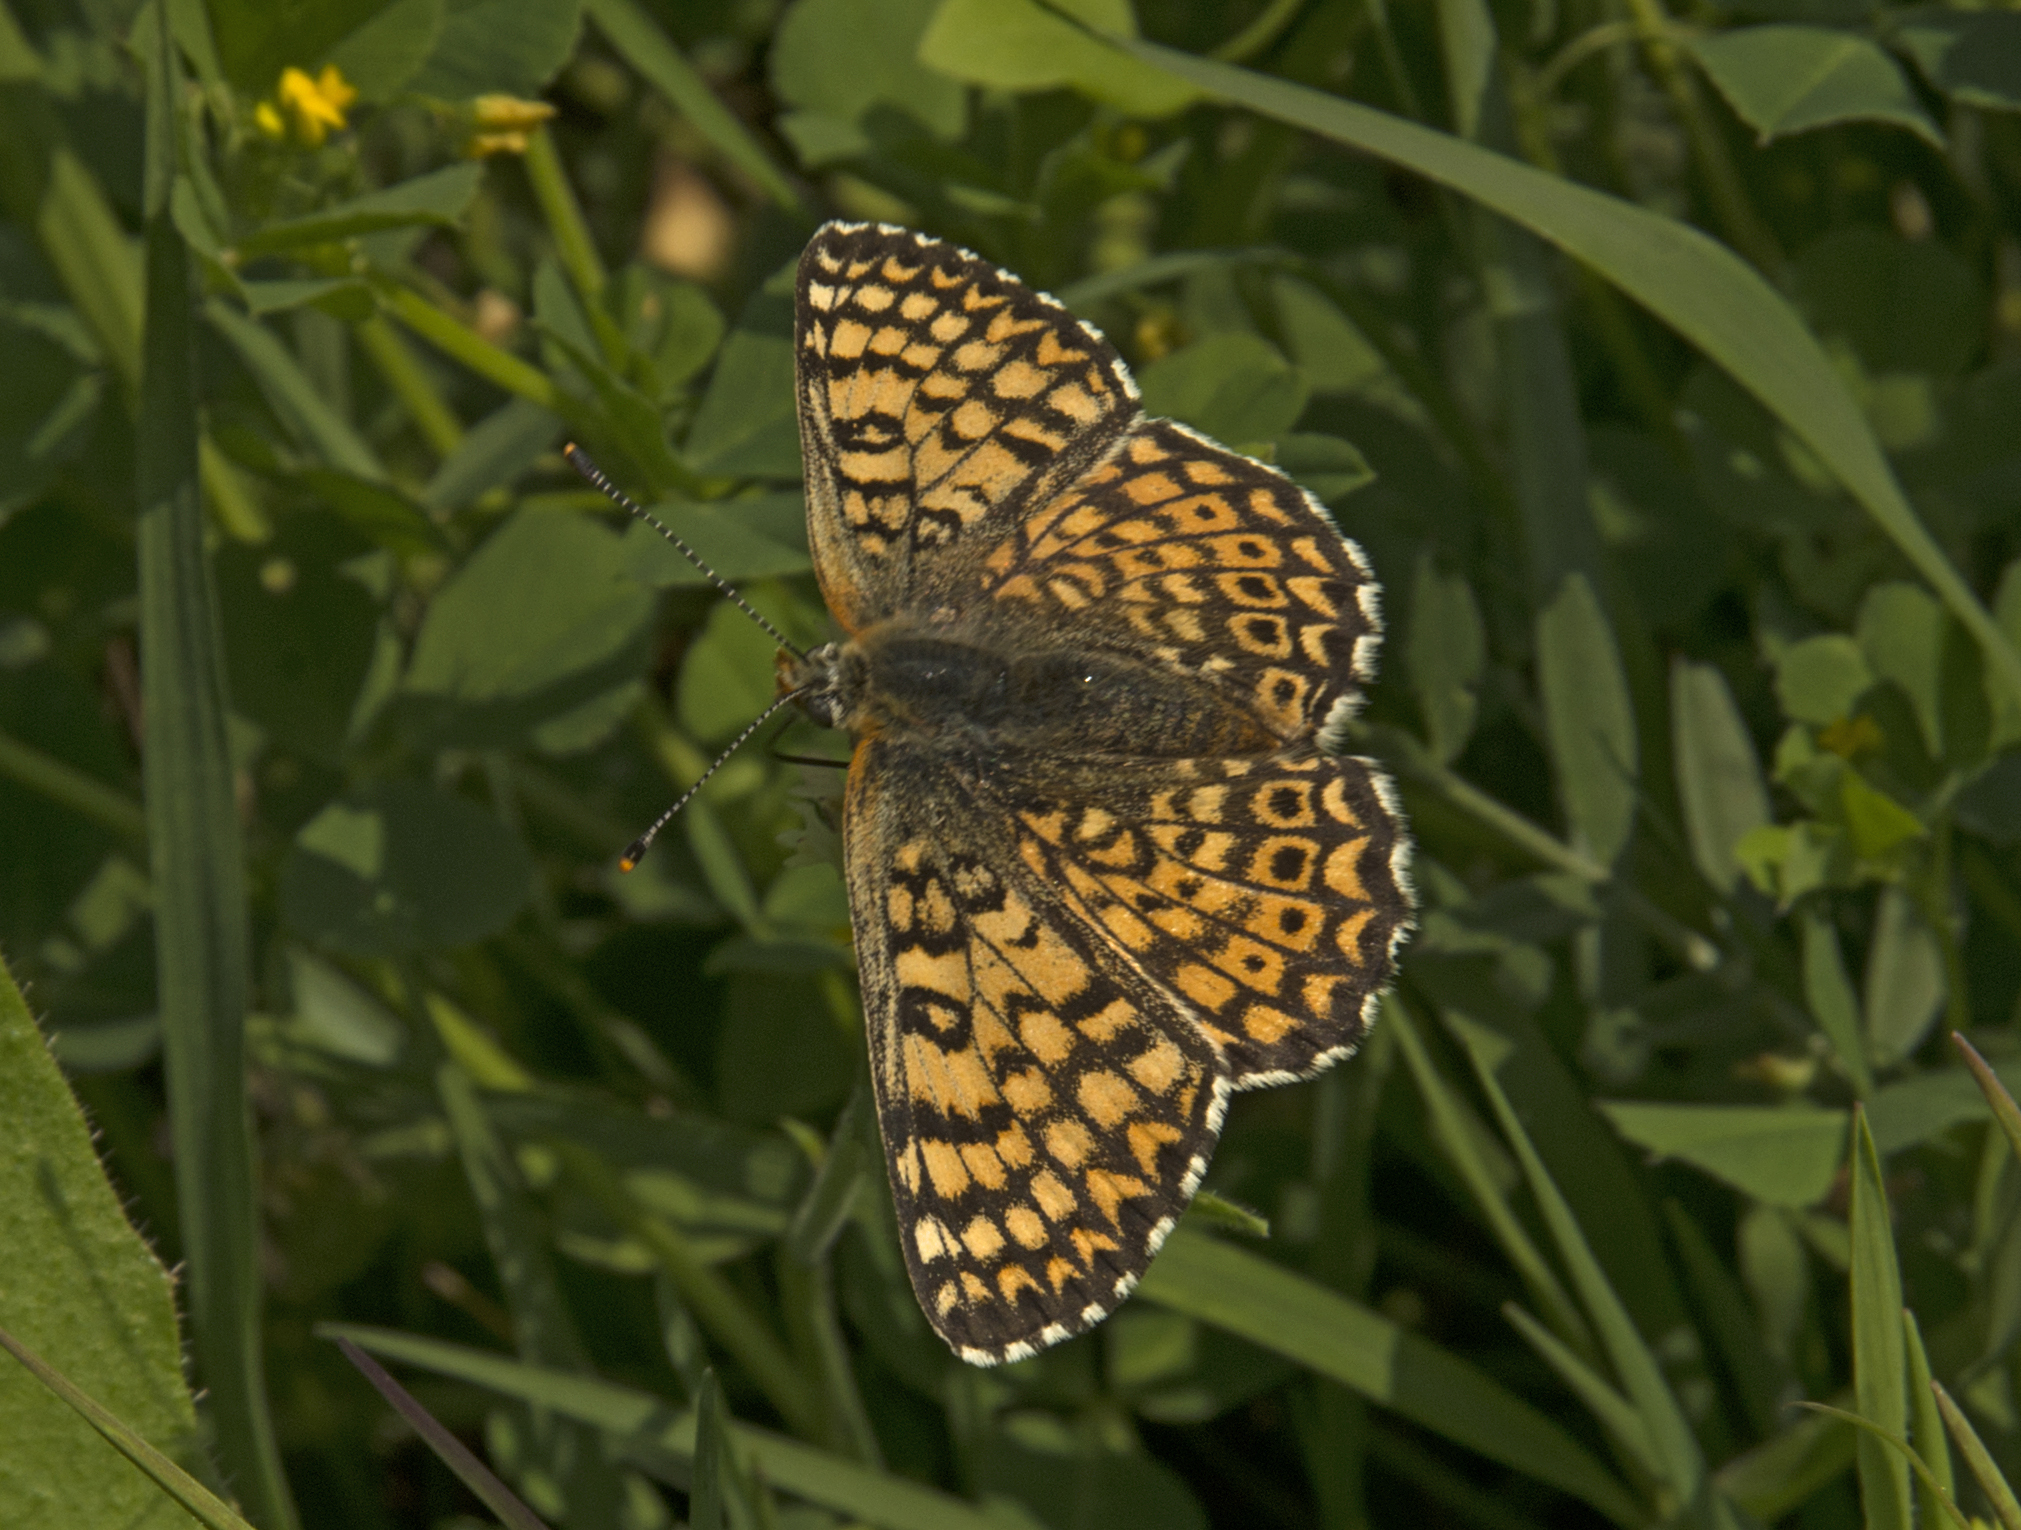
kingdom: Animalia
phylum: Arthropoda
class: Insecta
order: Lepidoptera
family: Nymphalidae
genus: Melitaea
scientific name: Melitaea cinxia
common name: Glanville fritillary
